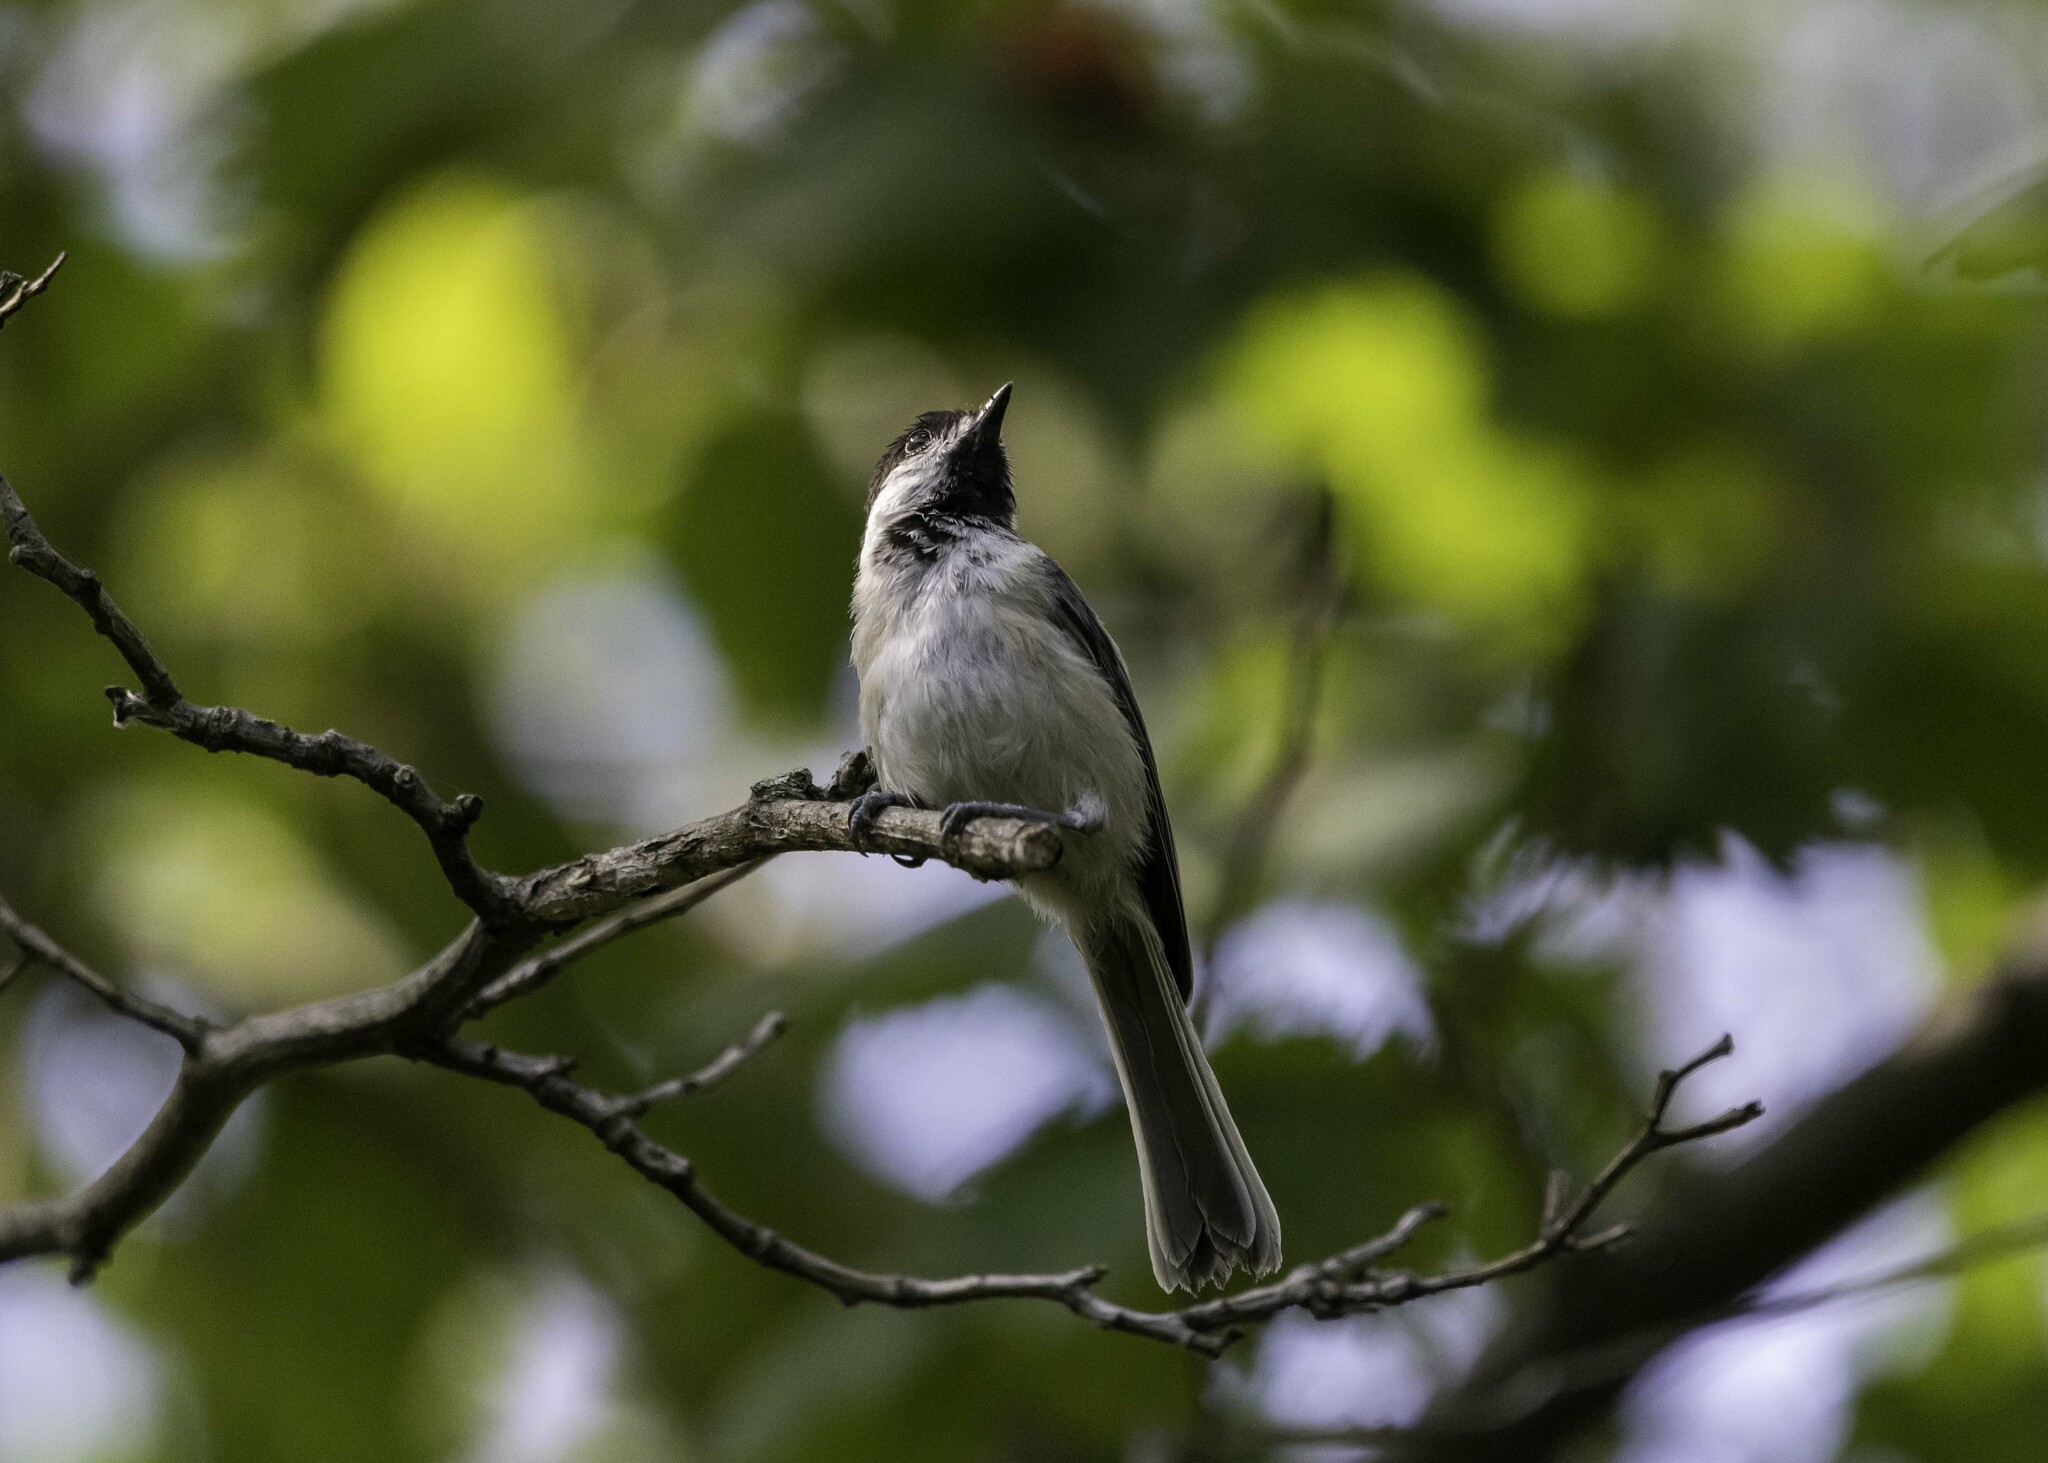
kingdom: Animalia
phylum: Chordata
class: Aves
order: Passeriformes
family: Paridae
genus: Poecile
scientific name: Poecile atricapillus
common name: Black-capped chickadee
